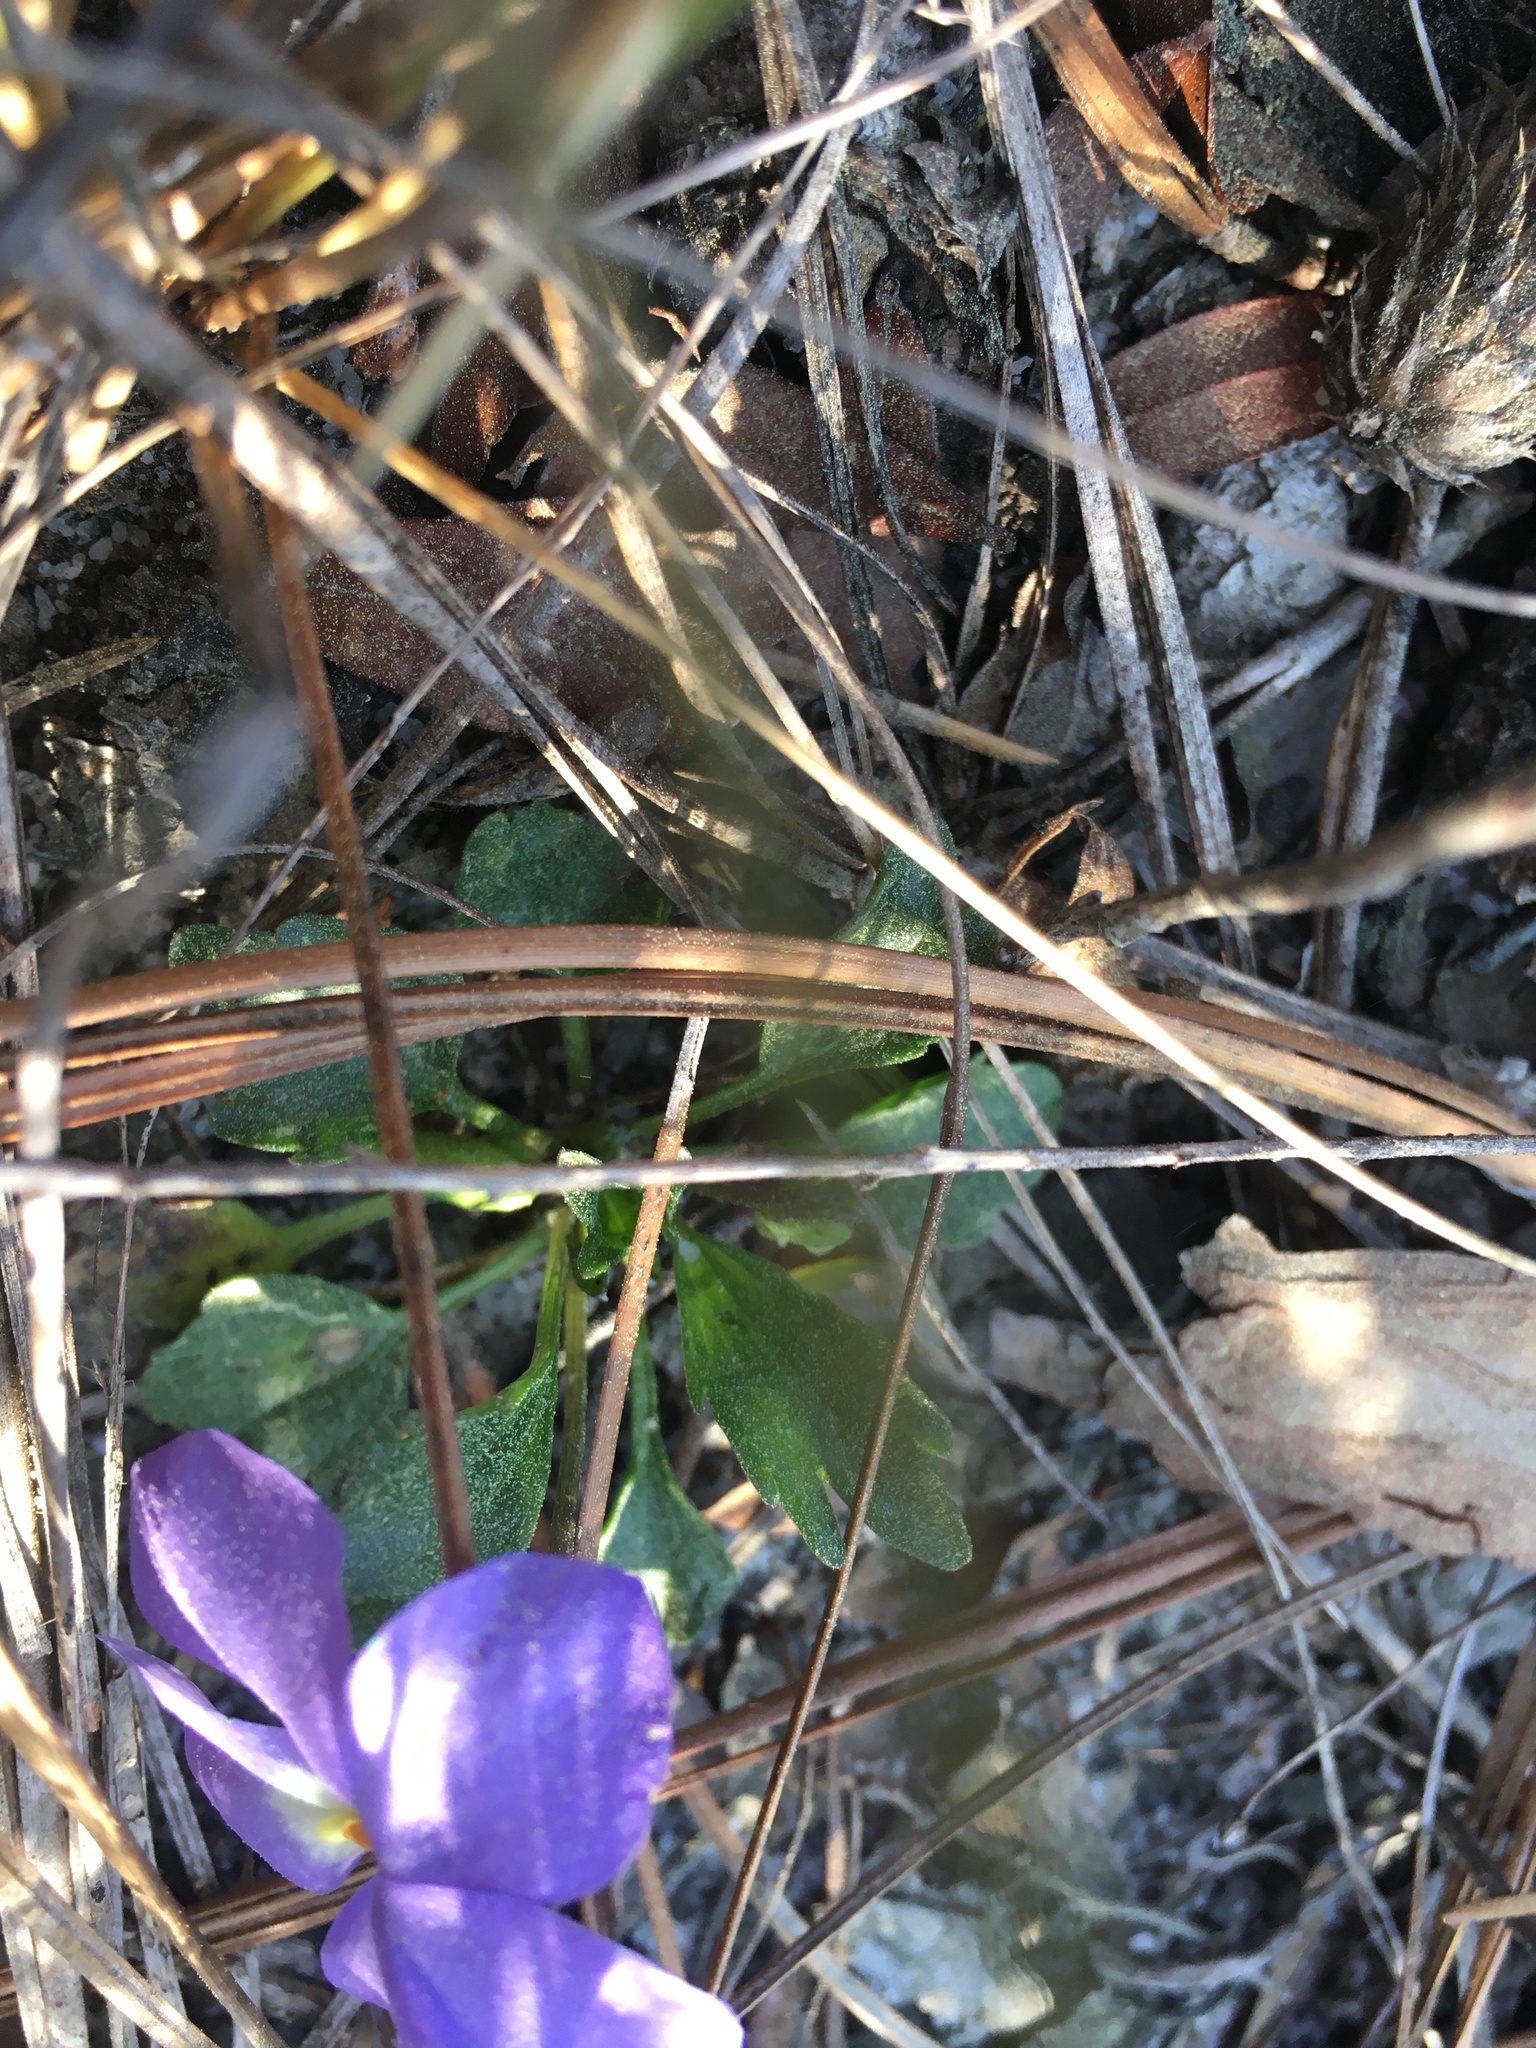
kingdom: Plantae
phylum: Tracheophyta
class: Magnoliopsida
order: Malpighiales
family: Violaceae
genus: Viola
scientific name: Viola pedata
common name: Pansy violet
